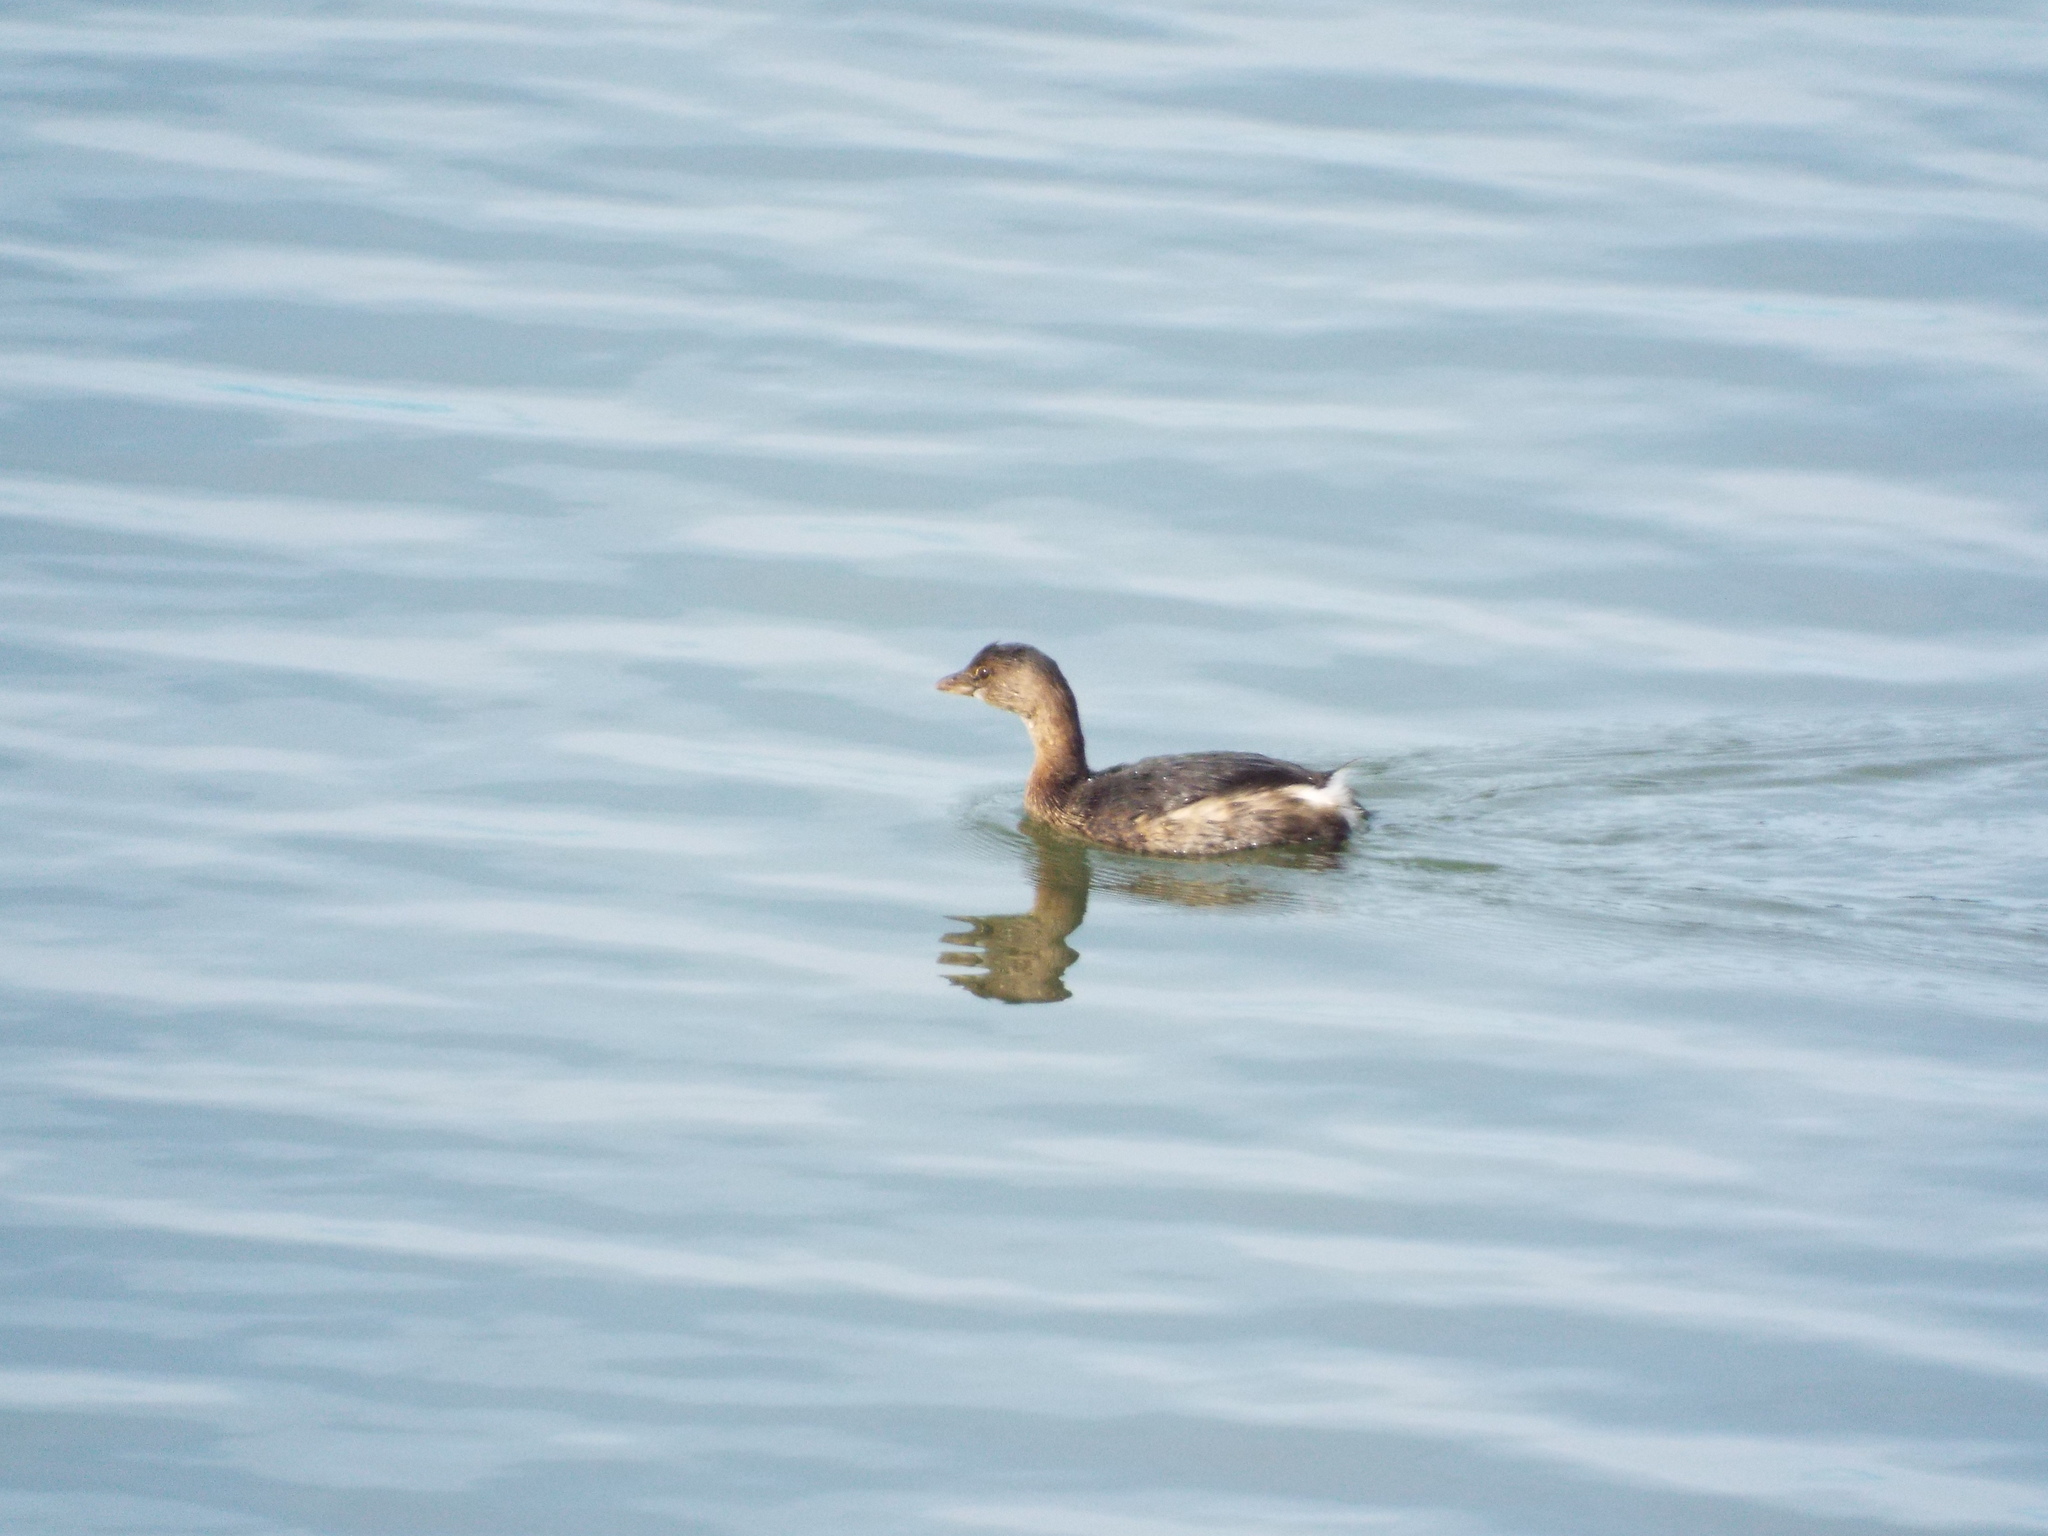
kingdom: Animalia
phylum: Chordata
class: Aves
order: Podicipediformes
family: Podicipedidae
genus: Podilymbus
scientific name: Podilymbus podiceps
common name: Pied-billed grebe
